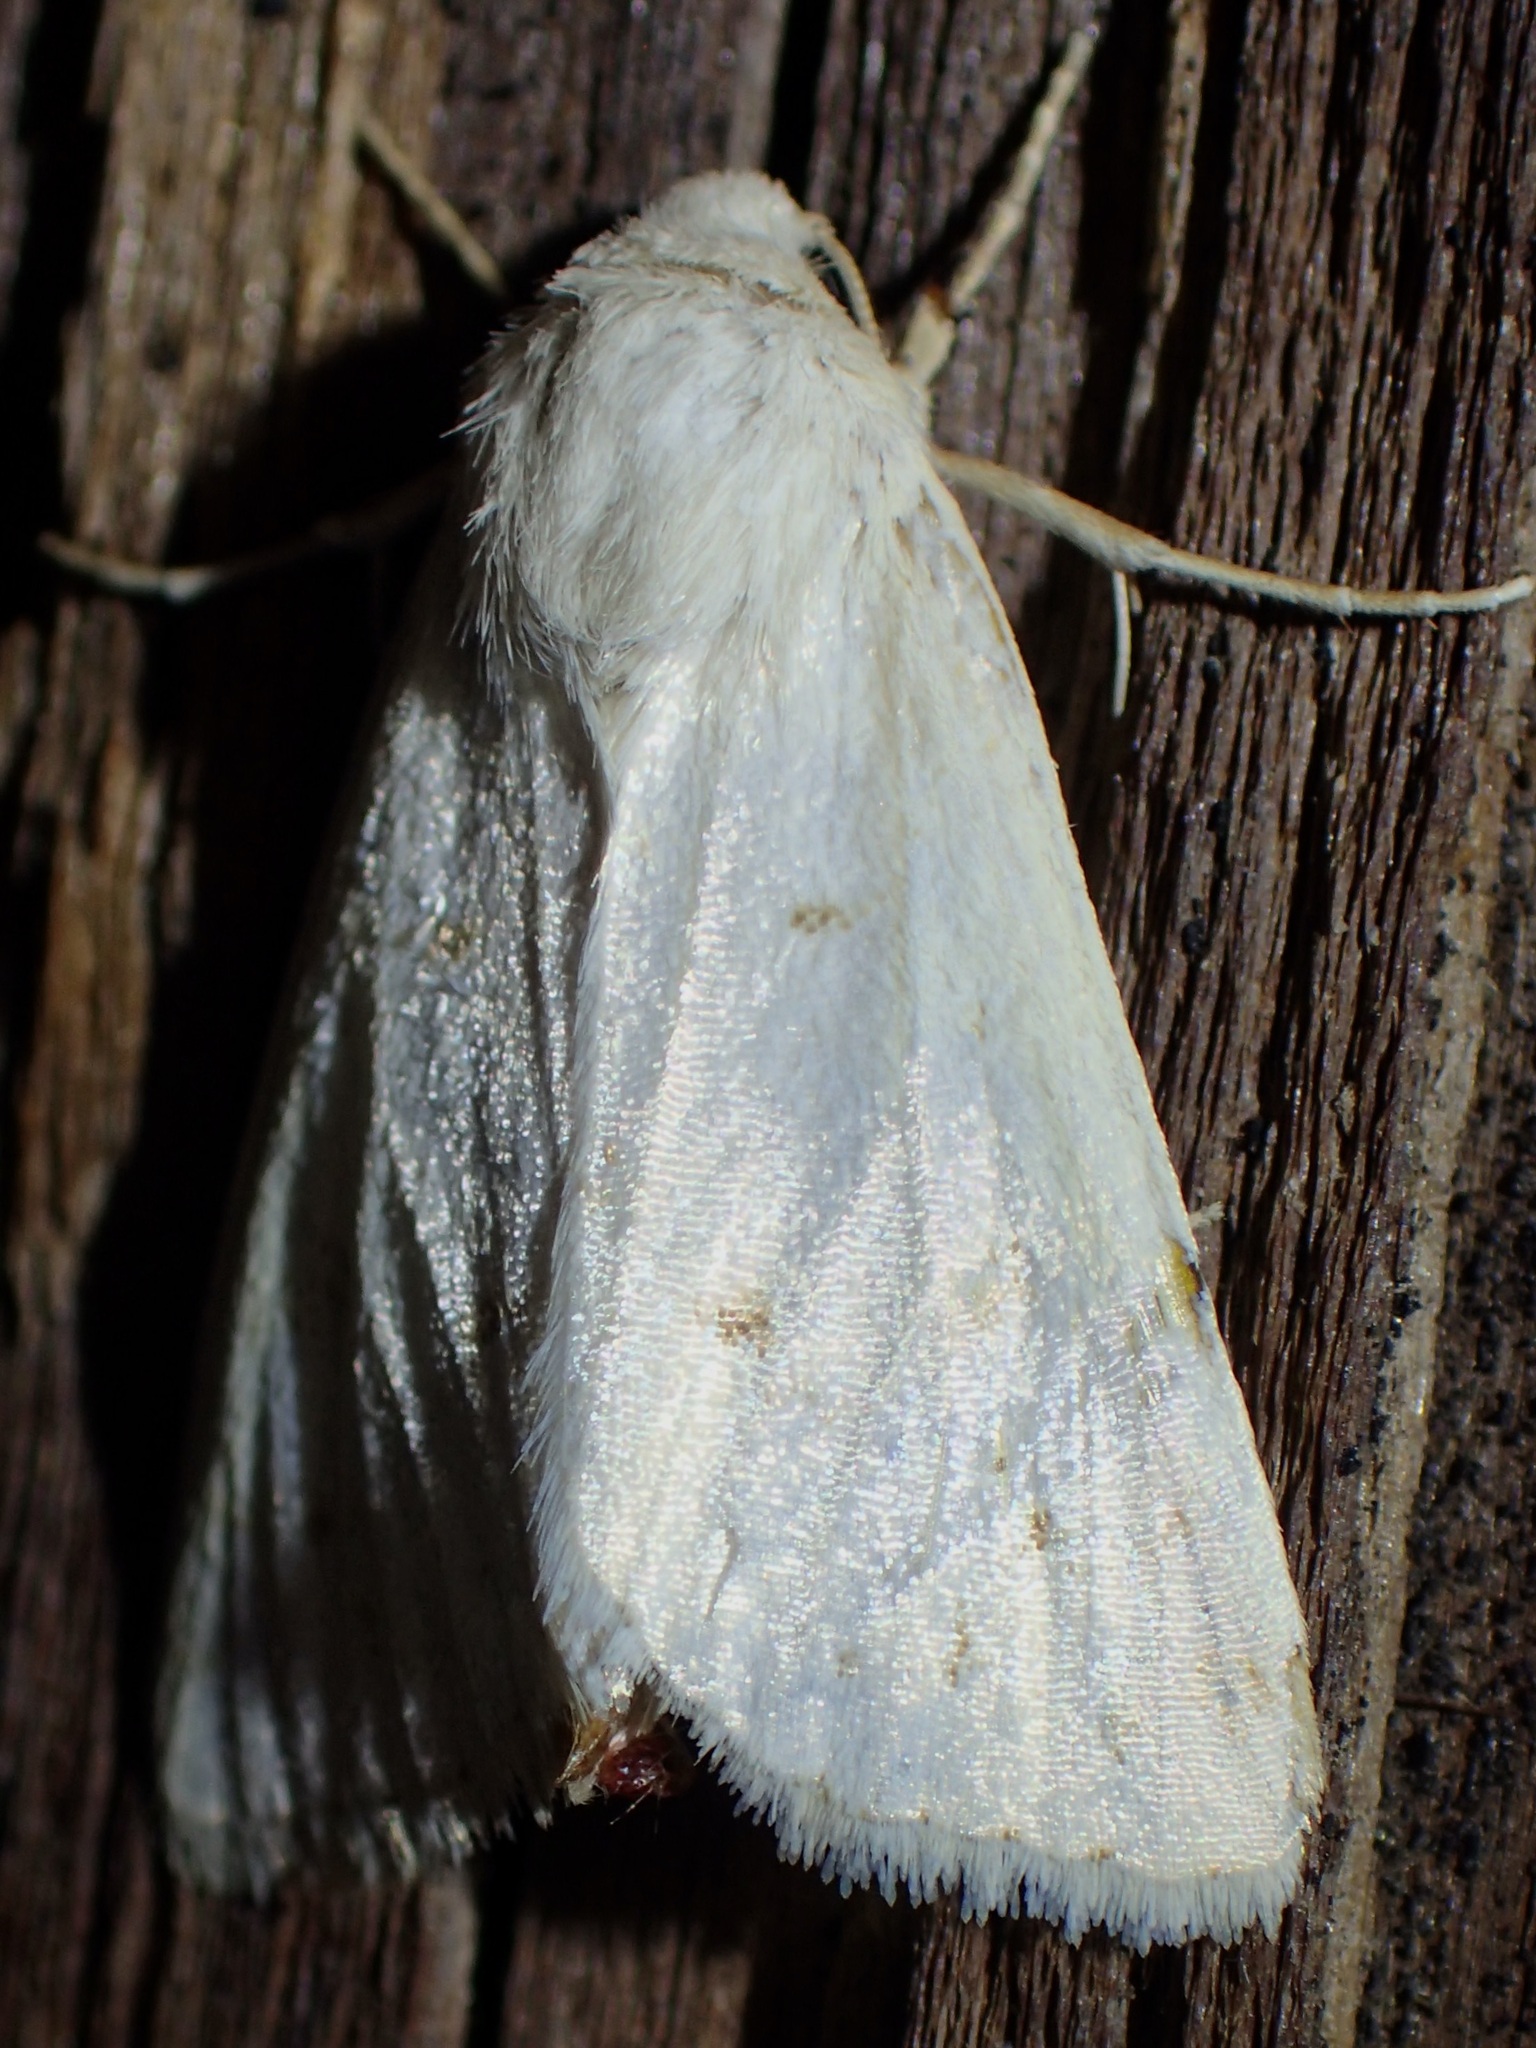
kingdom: Animalia
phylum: Arthropoda
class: Insecta
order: Lepidoptera
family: Noctuidae
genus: Oslaria
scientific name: Oslaria pura
